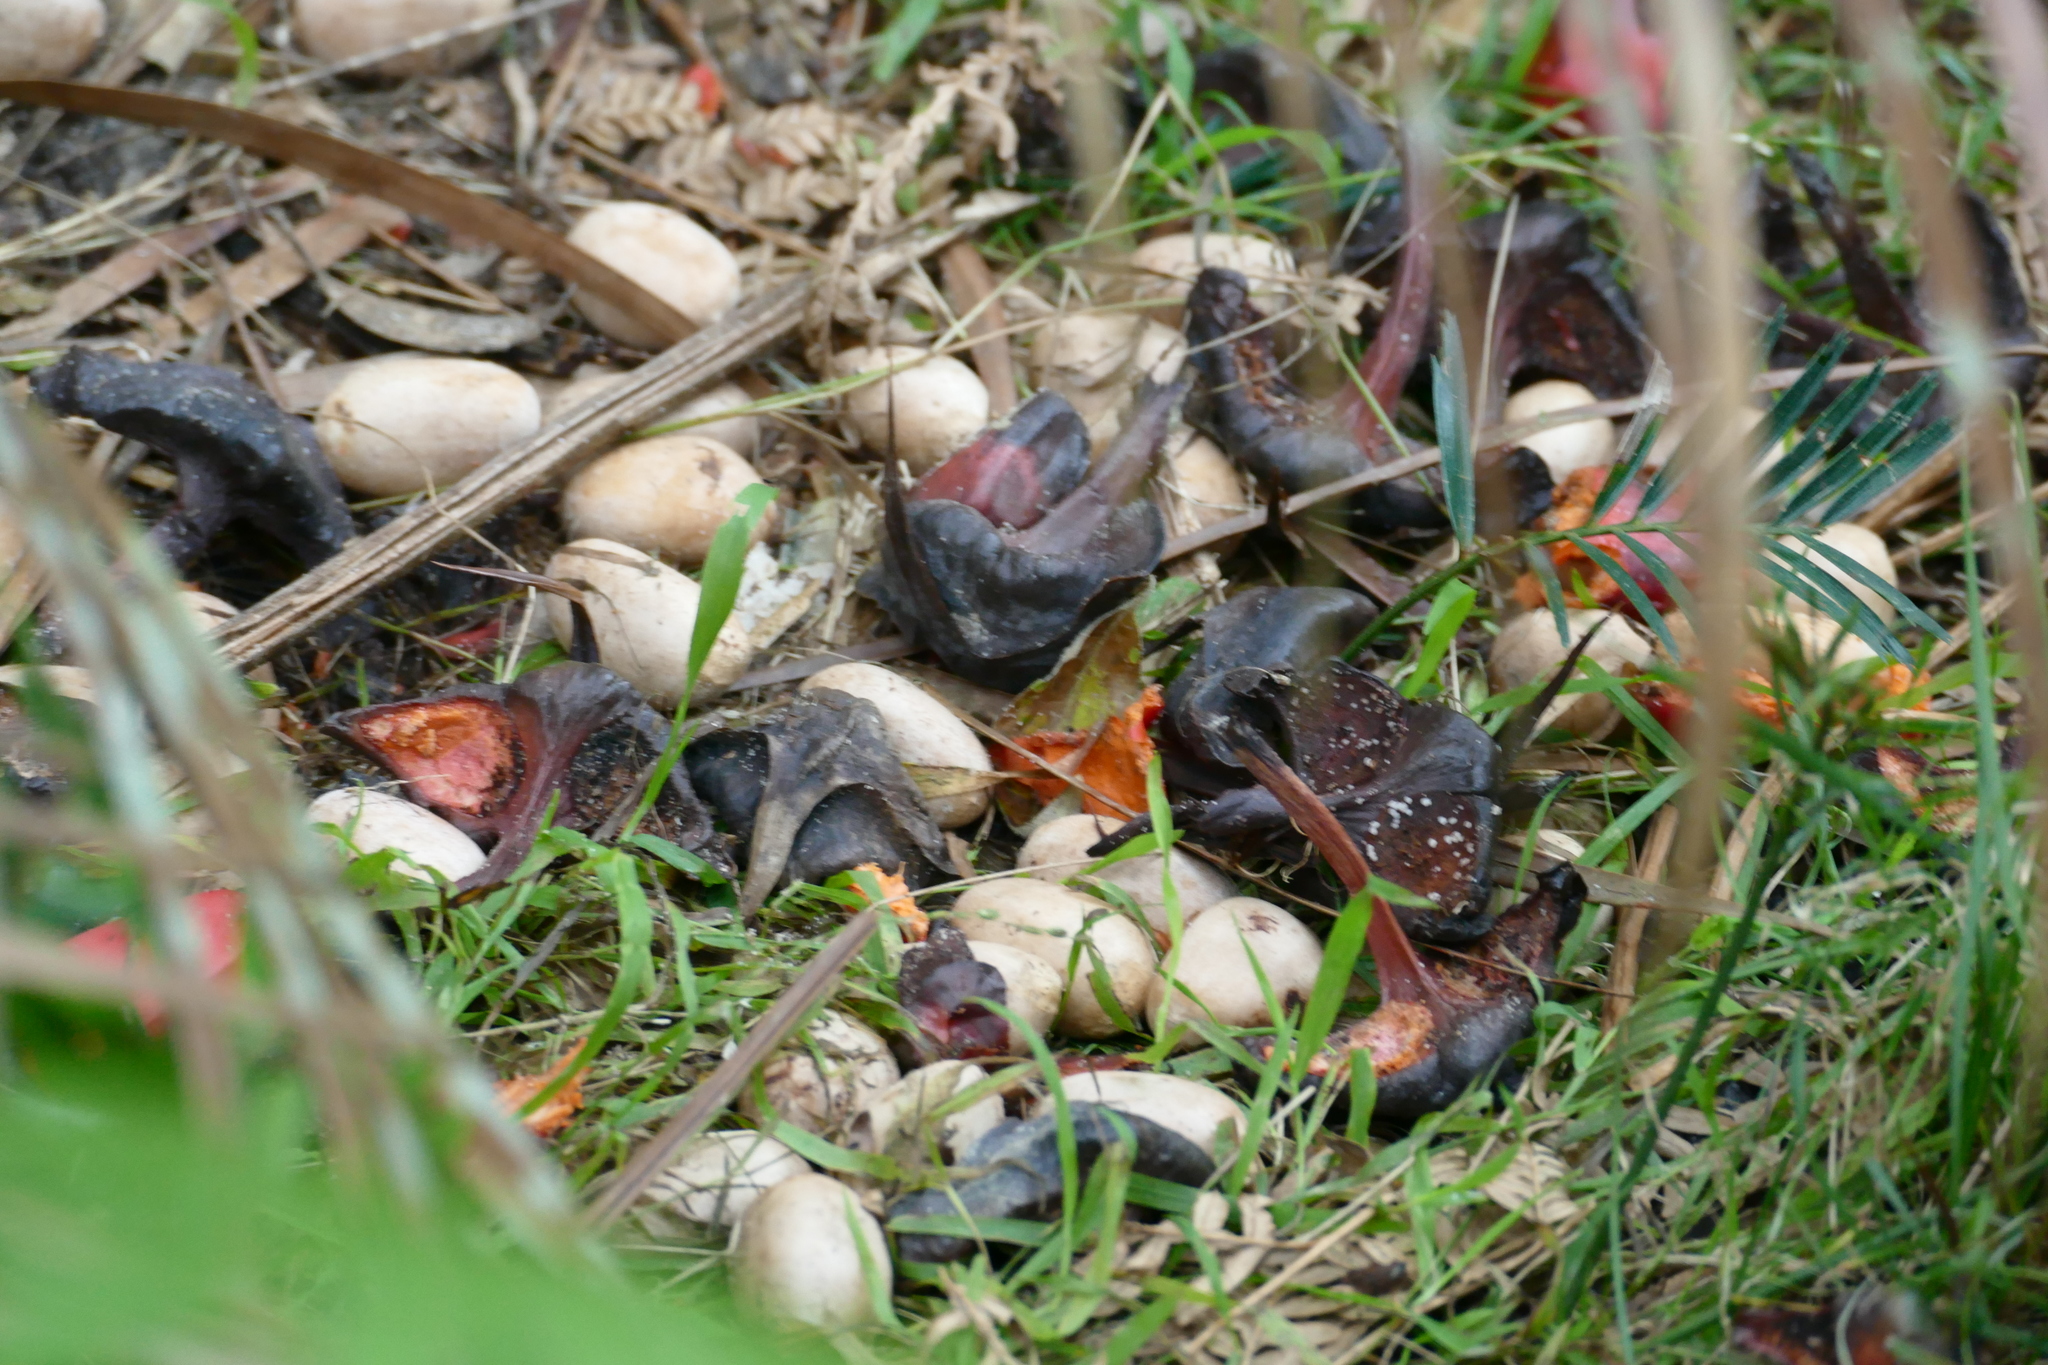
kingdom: Plantae
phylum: Tracheophyta
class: Cycadopsida
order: Cycadales
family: Zamiaceae
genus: Macrozamia
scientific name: Macrozamia communis
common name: Burrawong
